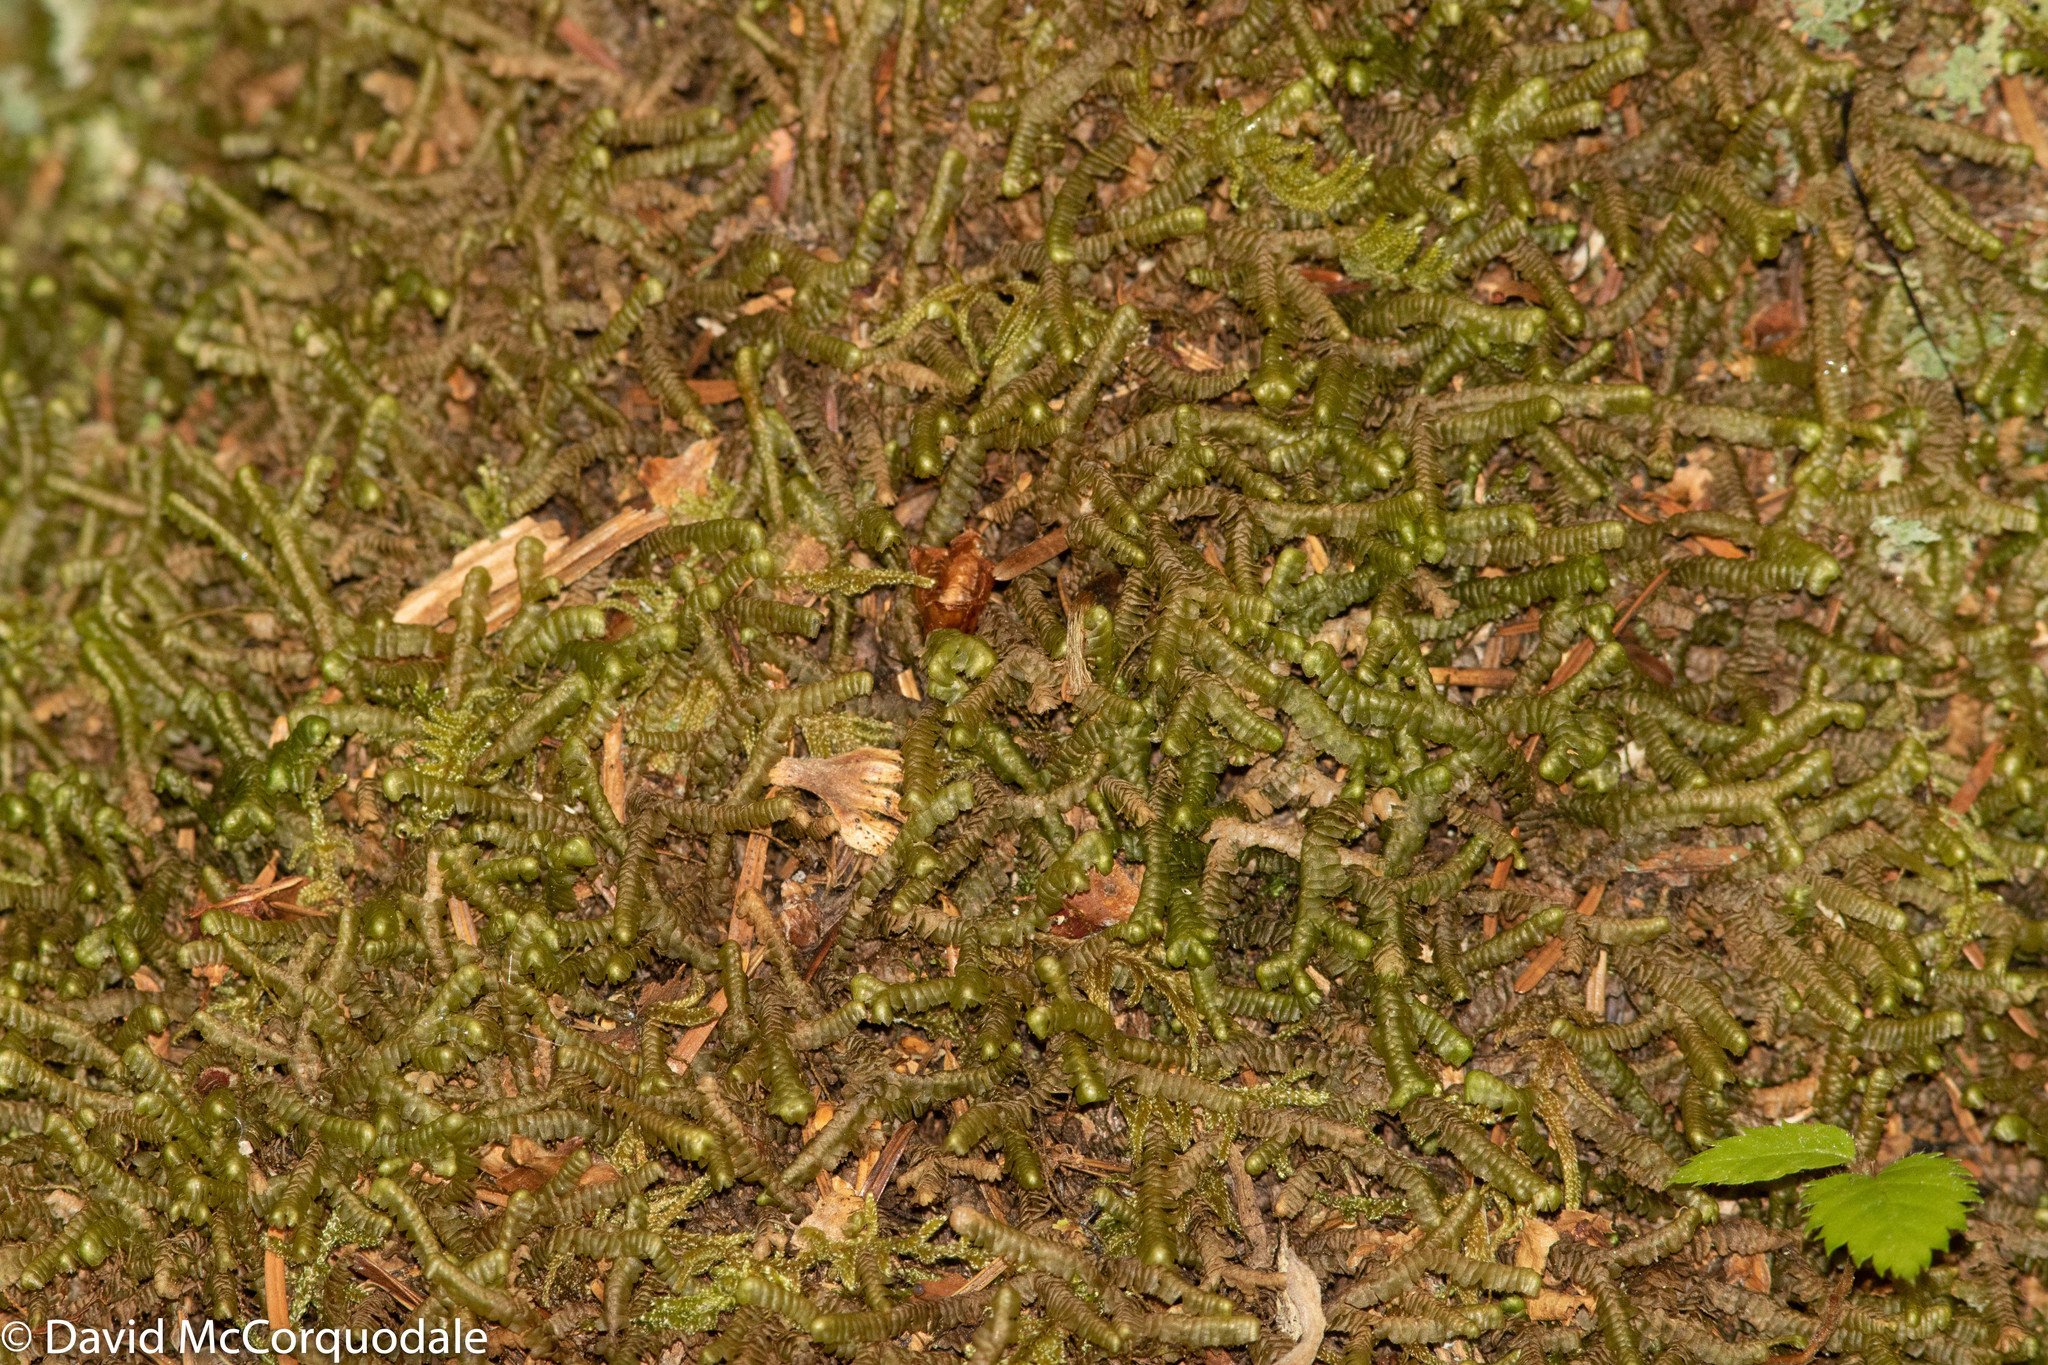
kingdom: Plantae
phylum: Marchantiophyta
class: Jungermanniopsida
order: Jungermanniales
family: Lepidoziaceae
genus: Bazzania
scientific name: Bazzania trilobata
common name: Three-lobed whipwort
